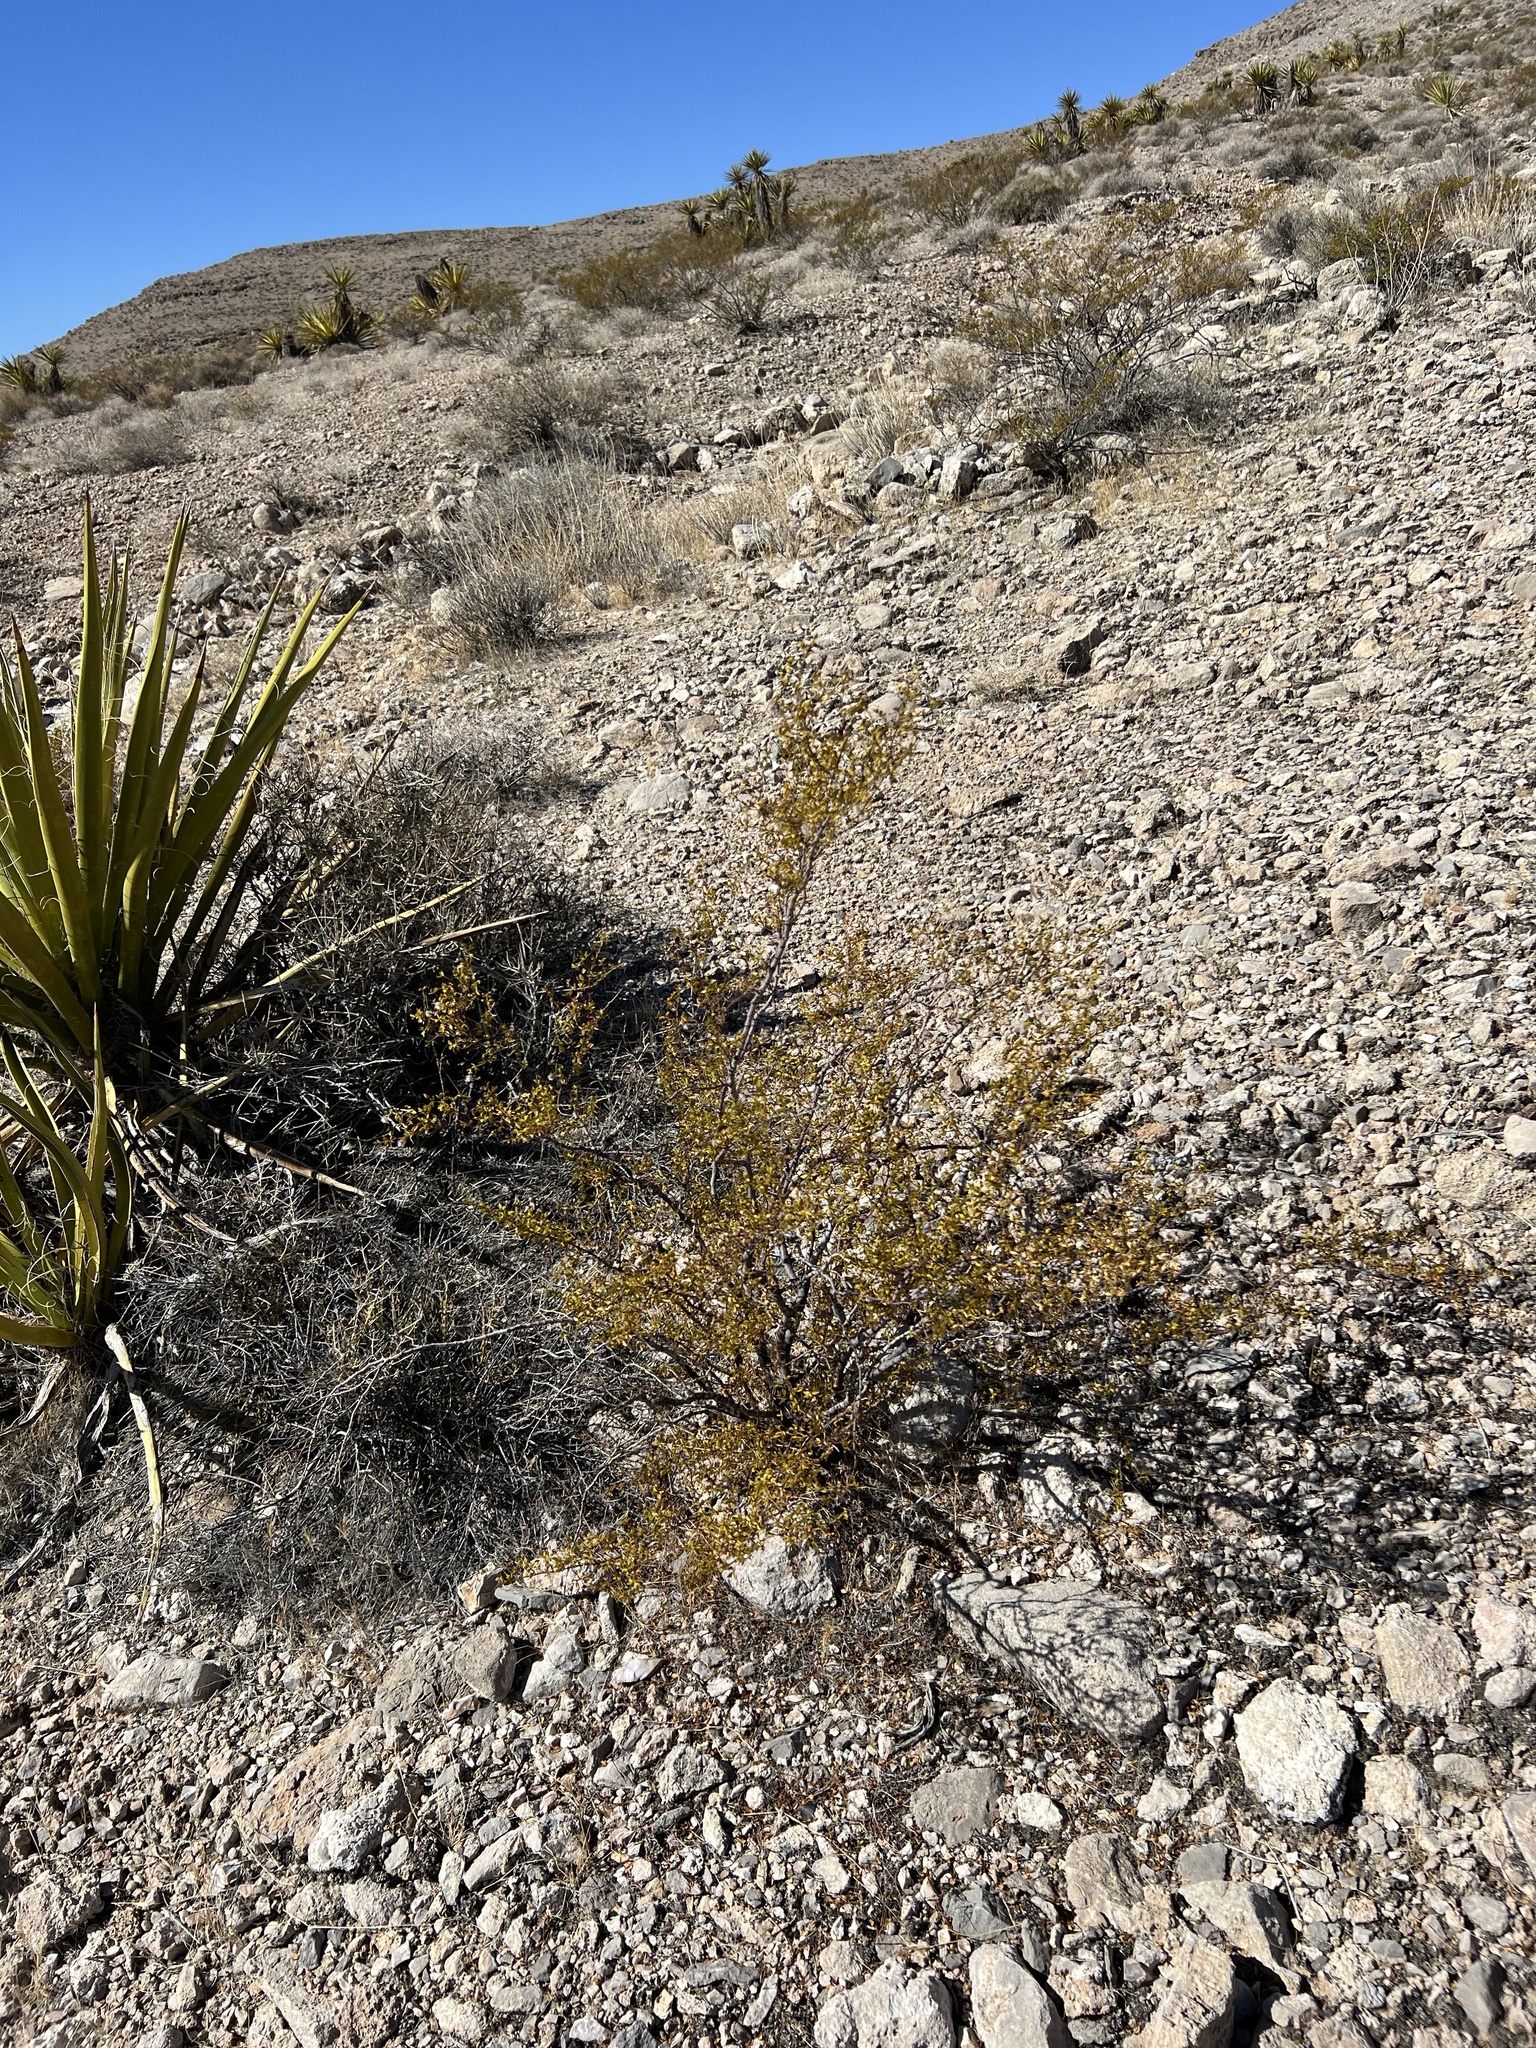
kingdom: Plantae
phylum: Tracheophyta
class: Magnoliopsida
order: Zygophyllales
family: Zygophyllaceae
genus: Larrea
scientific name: Larrea tridentata
